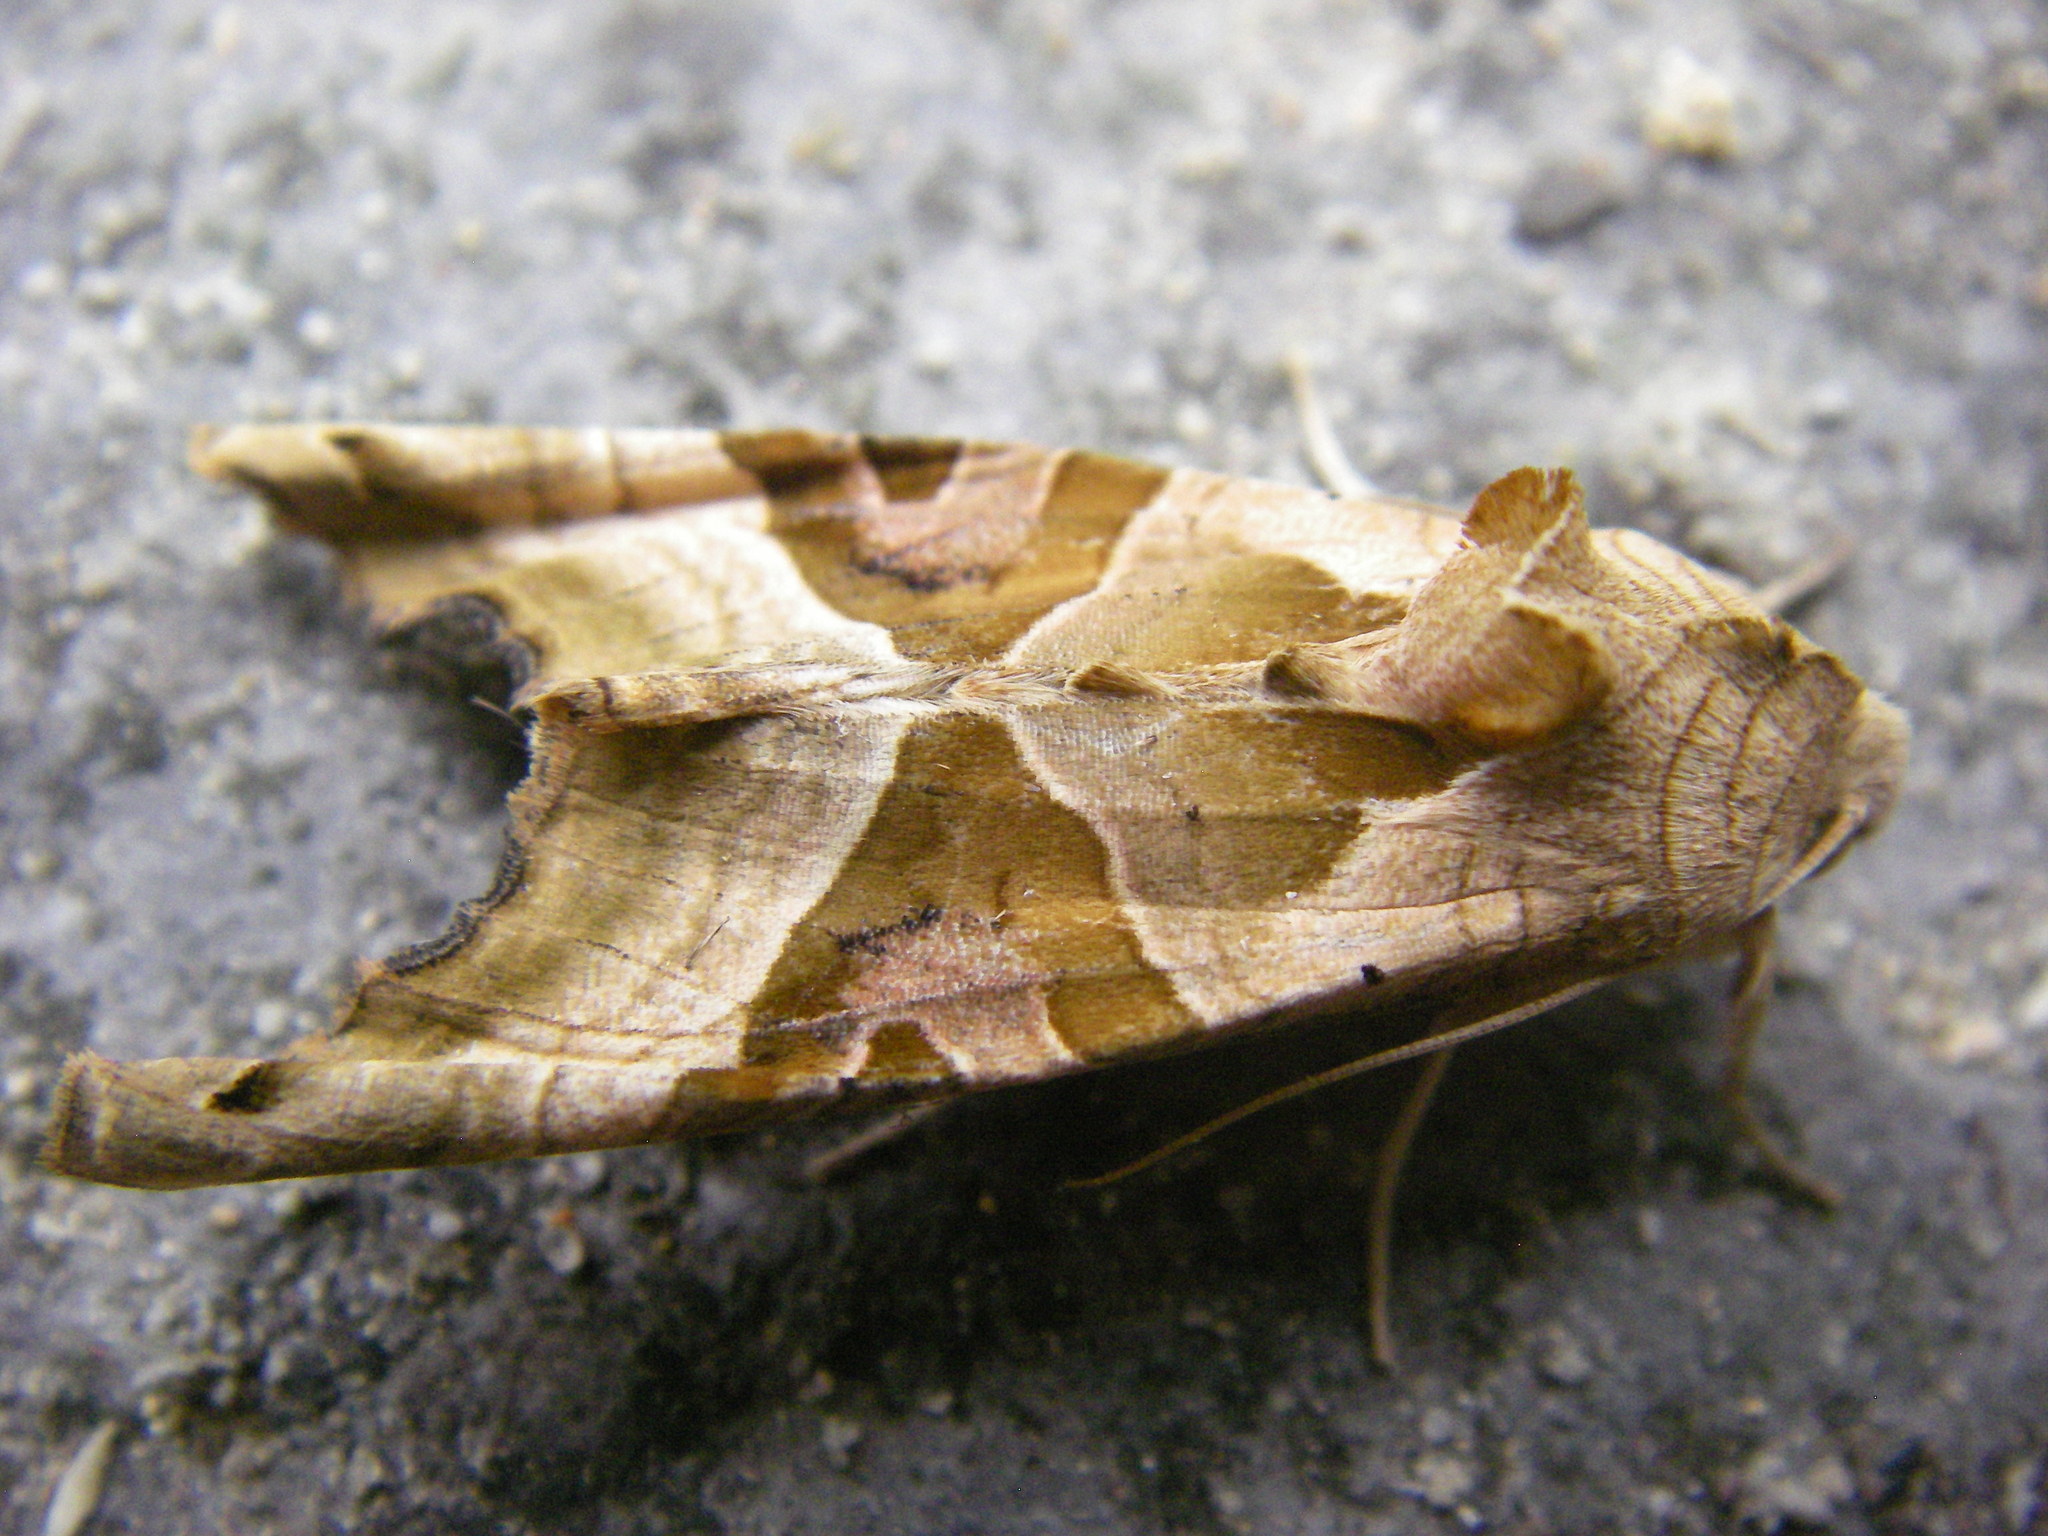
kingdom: Animalia
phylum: Arthropoda
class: Insecta
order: Lepidoptera
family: Noctuidae
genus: Phlogophora
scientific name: Phlogophora meticulosa
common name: Angle shades
